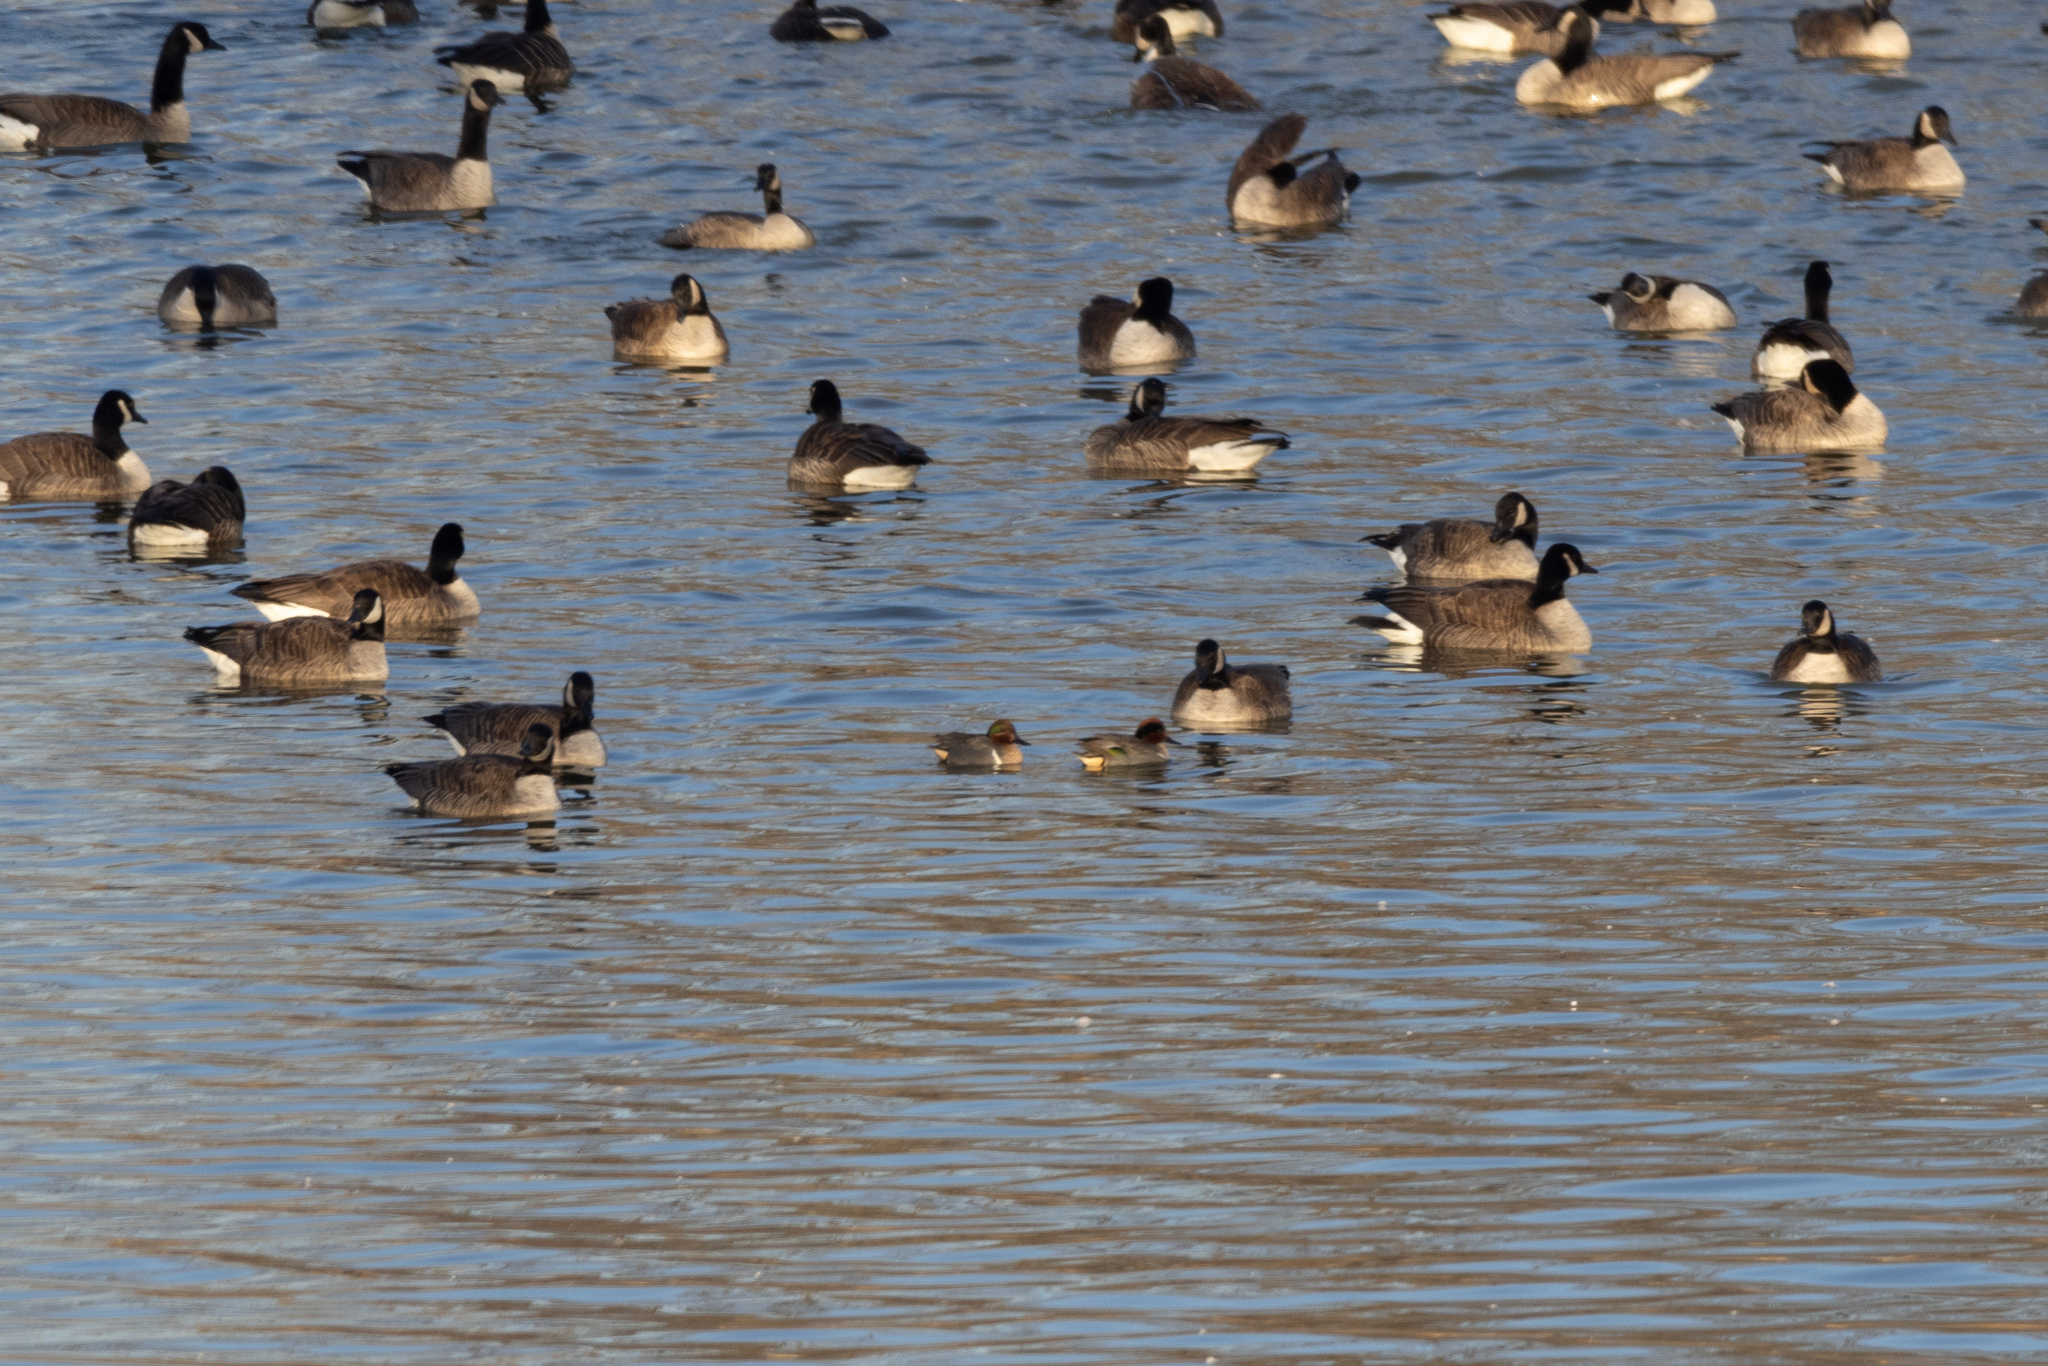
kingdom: Animalia
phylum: Chordata
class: Aves
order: Anseriformes
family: Anatidae
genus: Anas
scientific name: Anas carolinensis
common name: Green-winged teal
